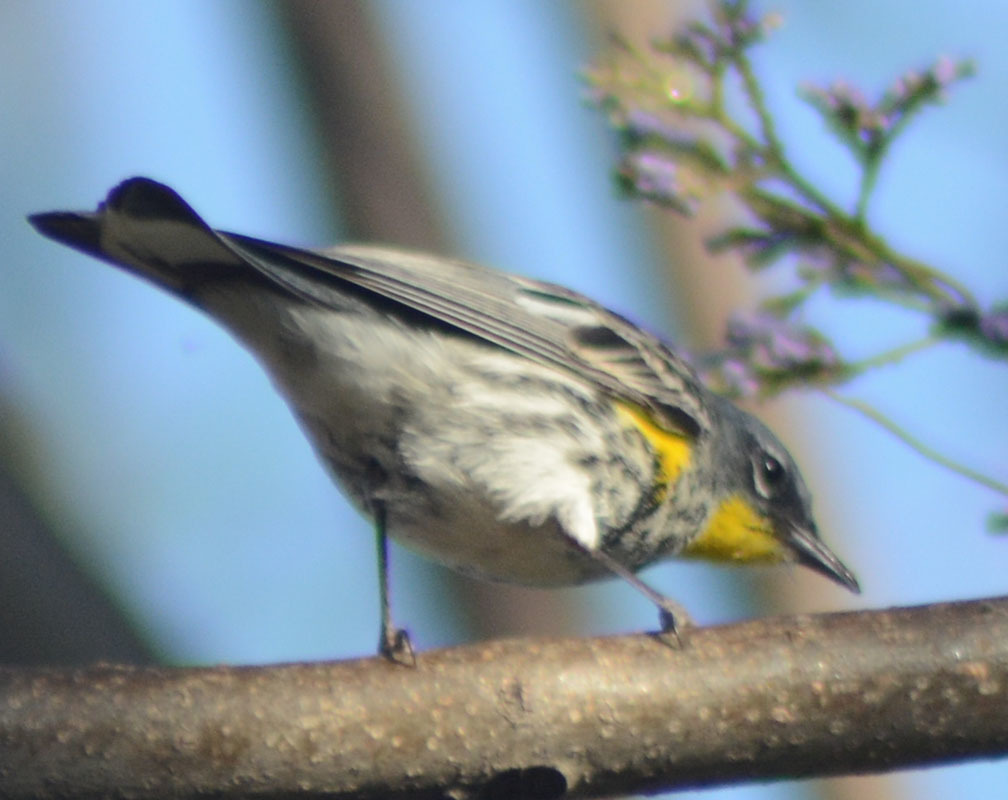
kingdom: Animalia
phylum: Chordata
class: Aves
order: Passeriformes
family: Parulidae
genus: Setophaga
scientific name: Setophaga auduboni
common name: Audubon's warbler
